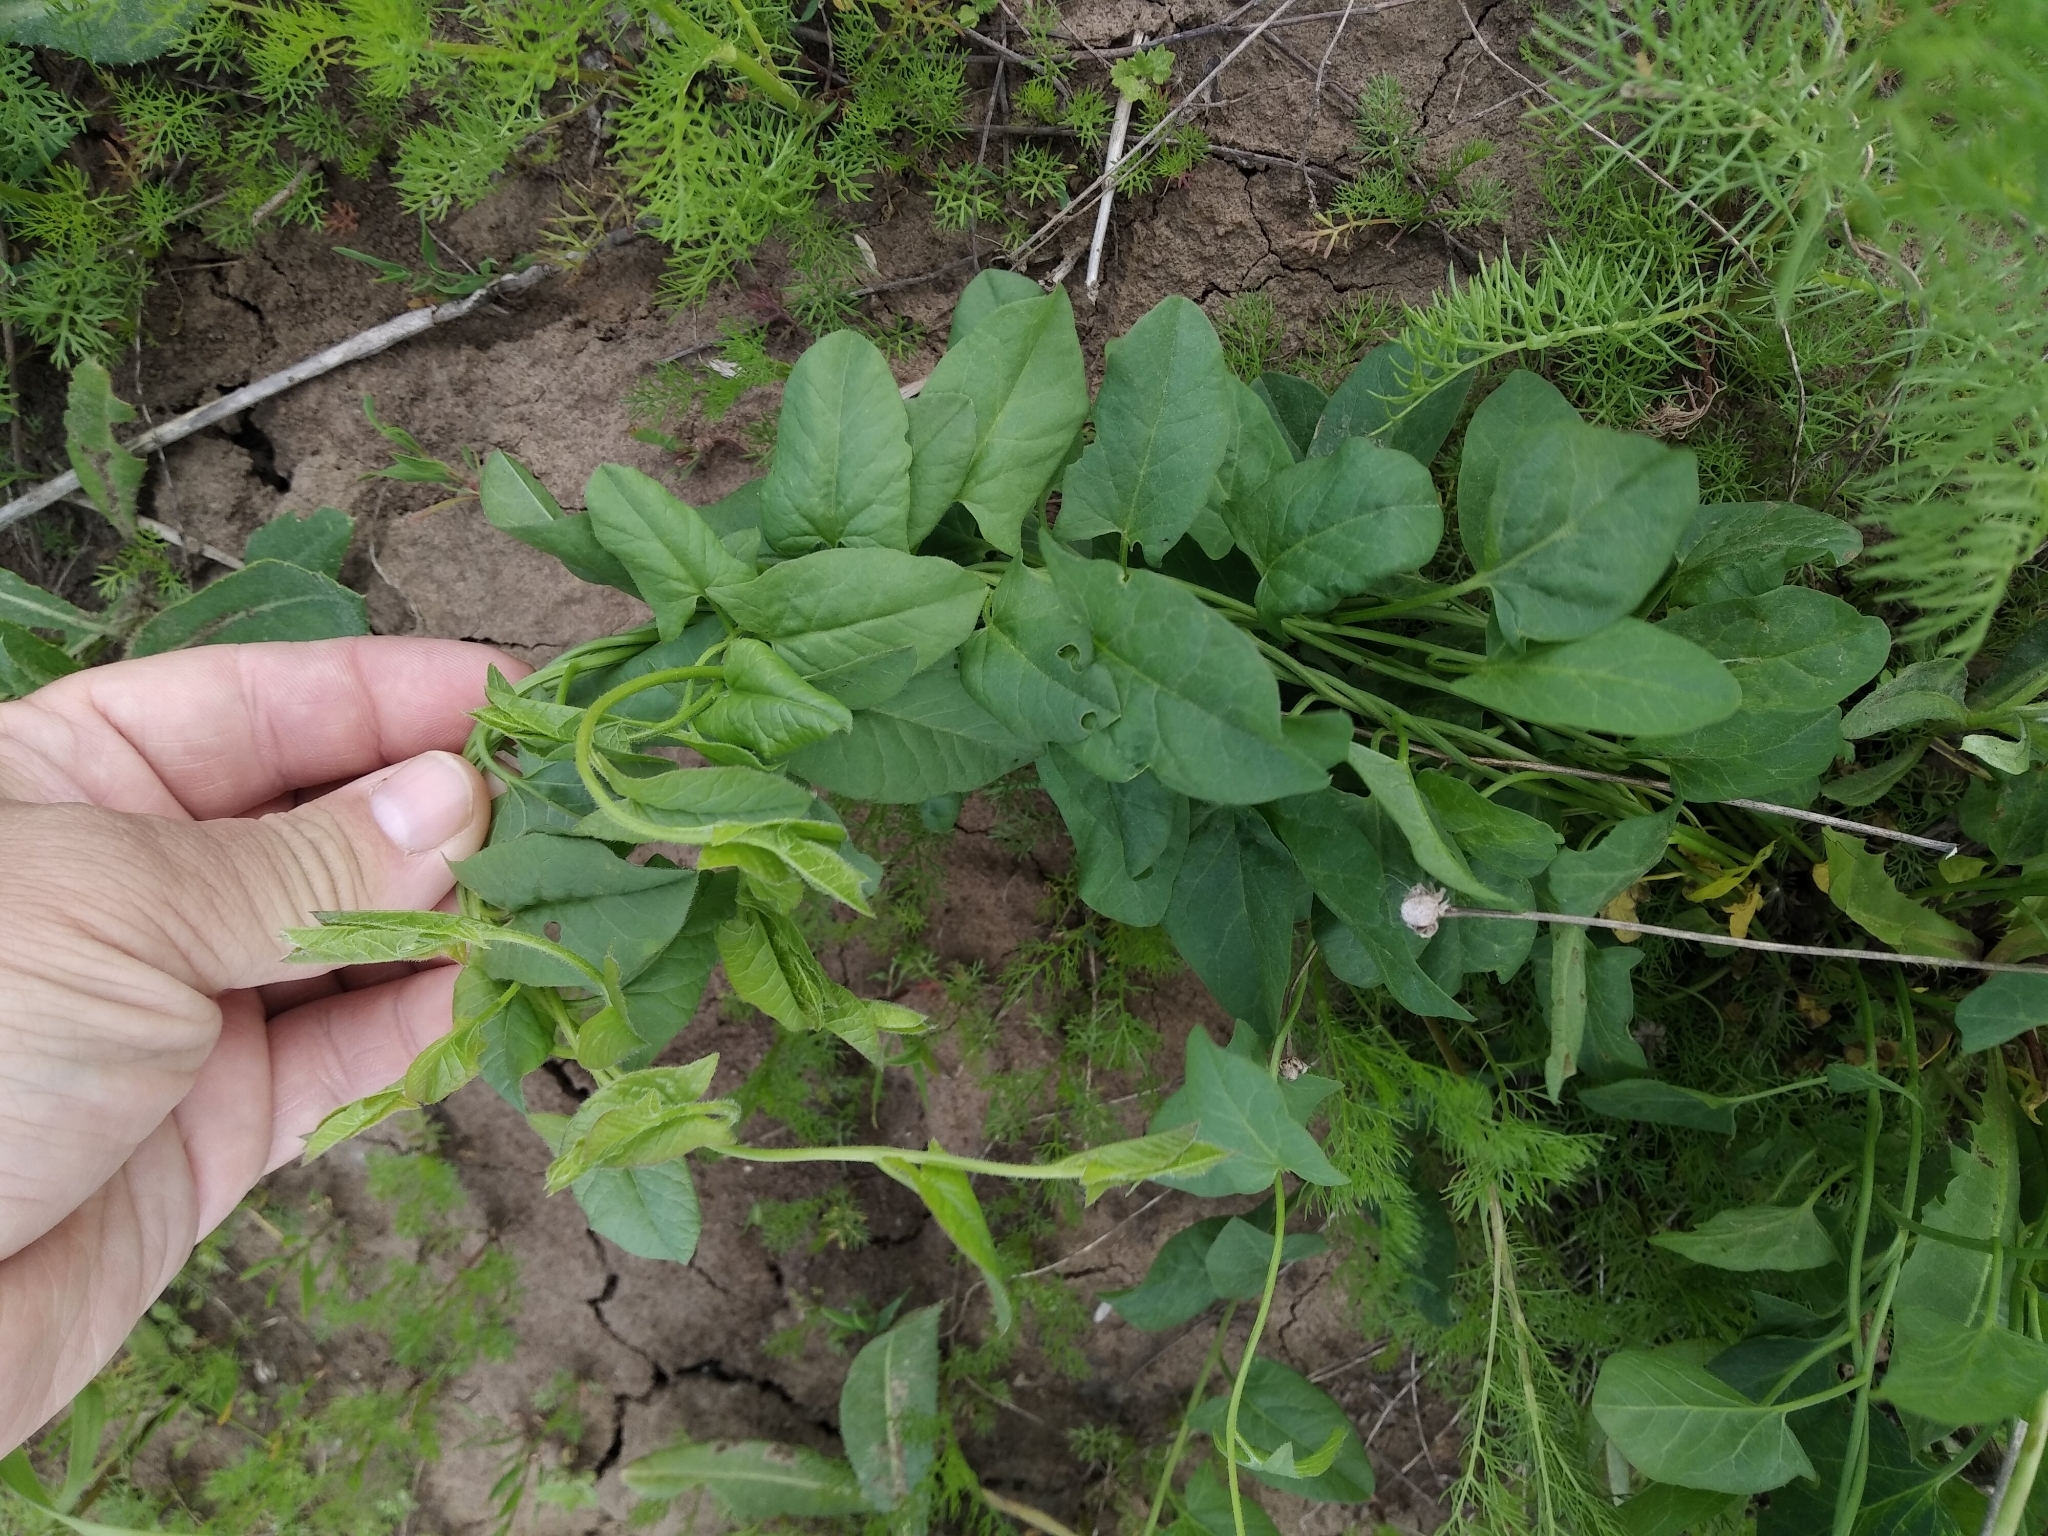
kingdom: Plantae
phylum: Tracheophyta
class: Magnoliopsida
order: Solanales
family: Convolvulaceae
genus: Convolvulus
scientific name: Convolvulus arvensis
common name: Field bindweed
